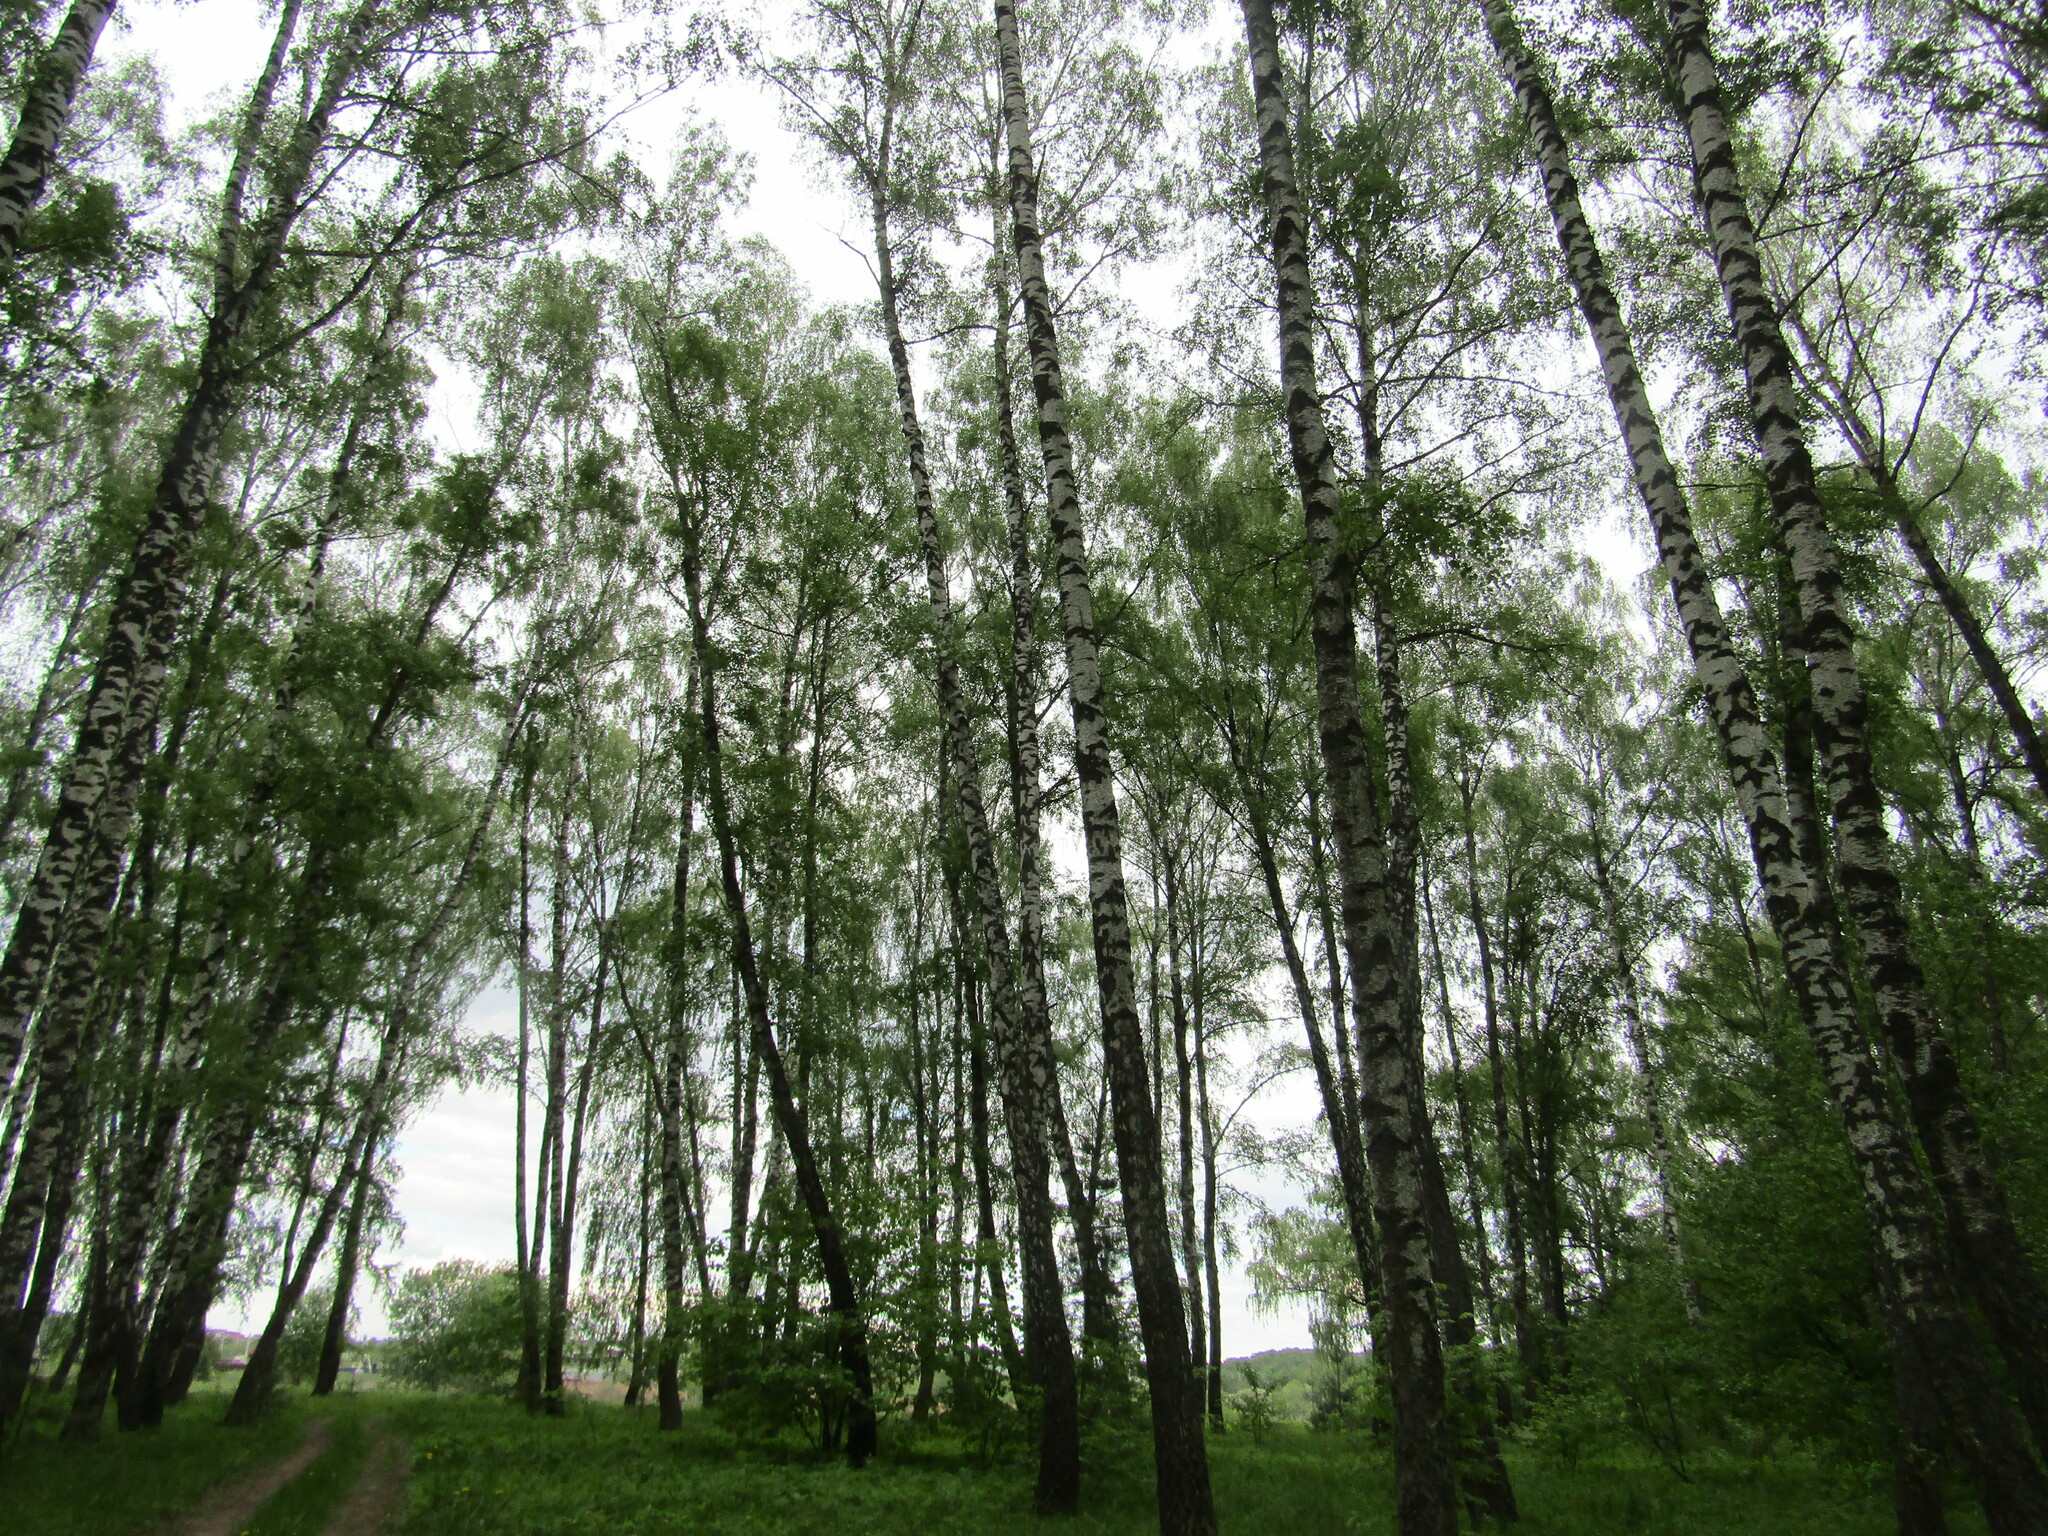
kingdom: Plantae
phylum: Tracheophyta
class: Magnoliopsida
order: Fagales
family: Betulaceae
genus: Betula
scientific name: Betula pendula
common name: Silver birch
